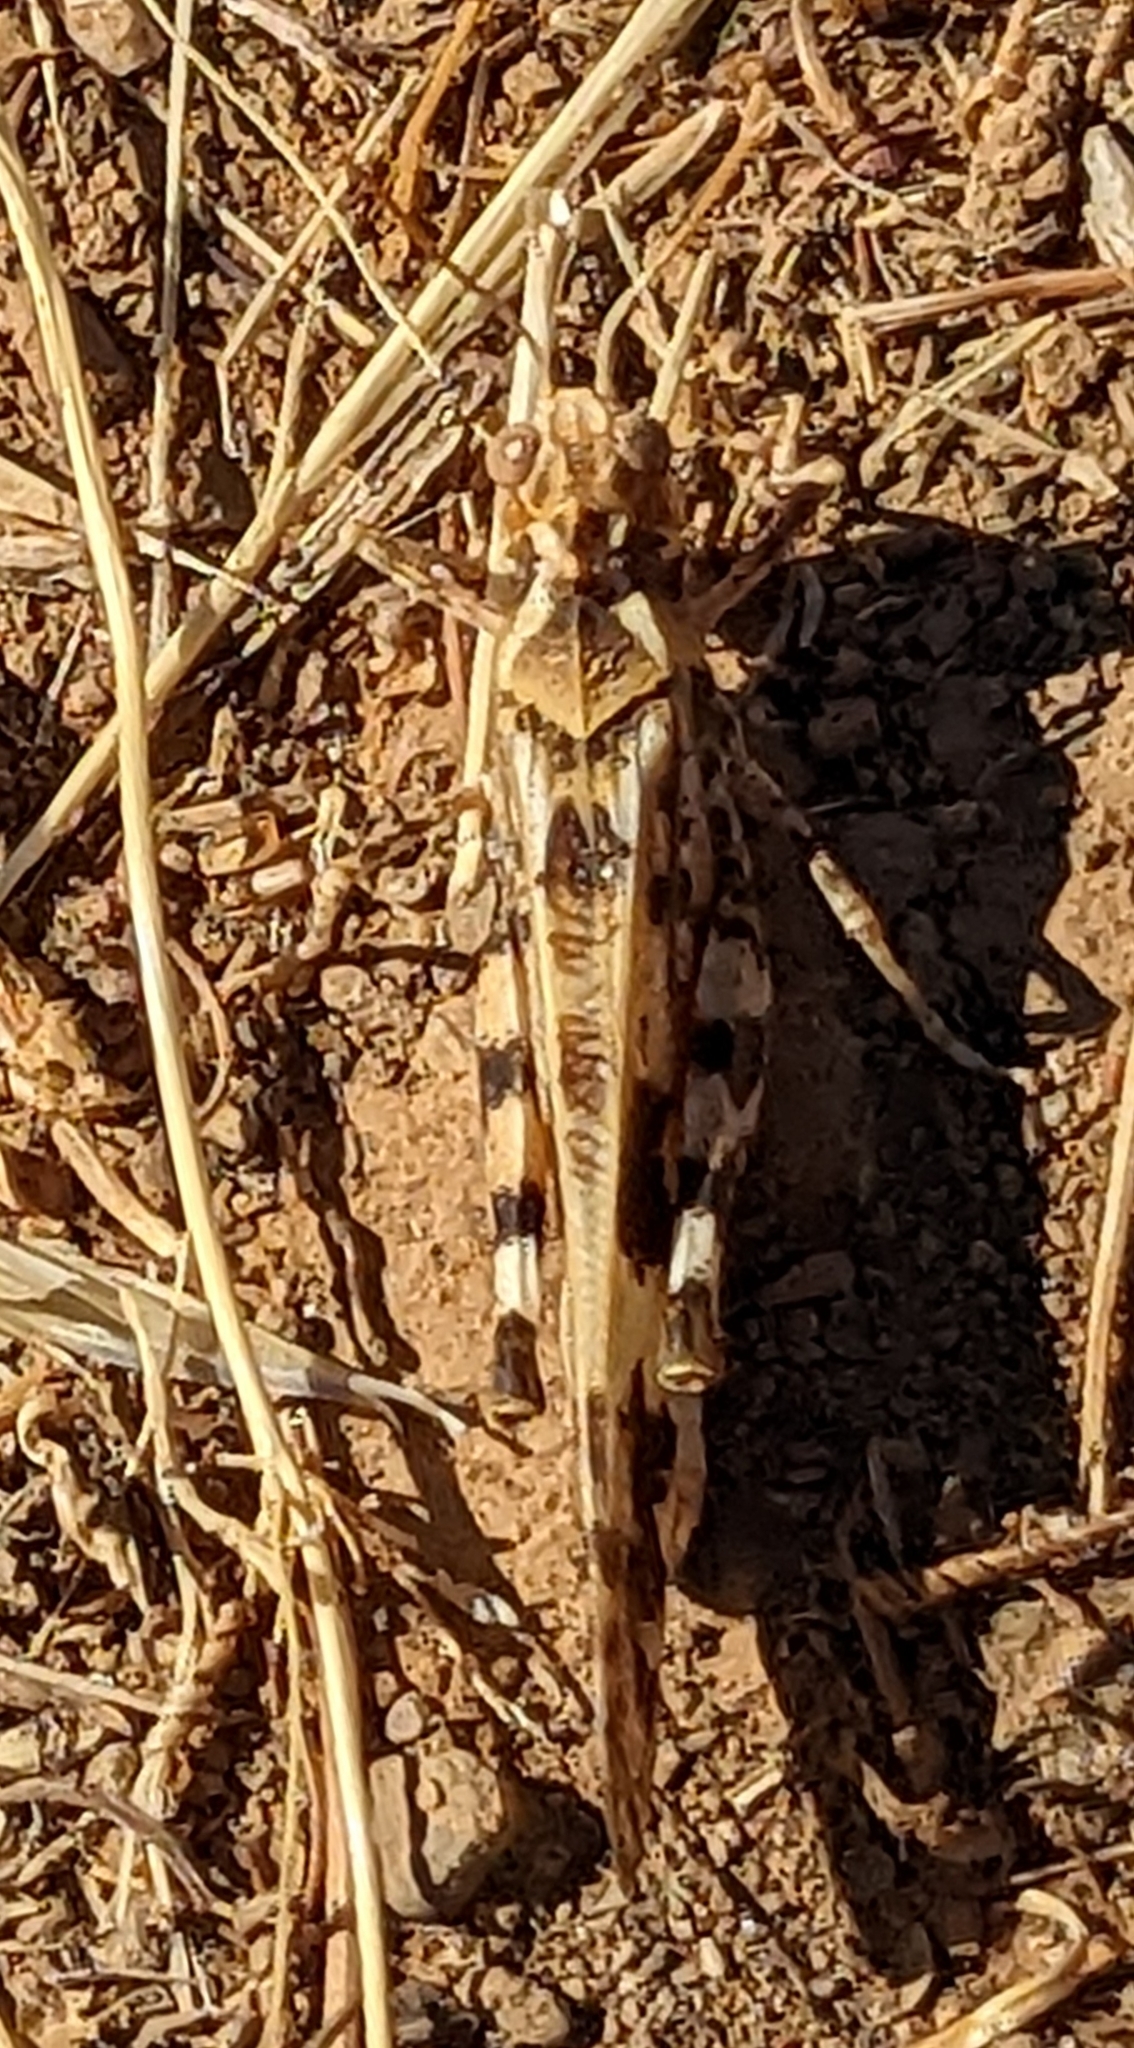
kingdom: Animalia
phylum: Arthropoda
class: Insecta
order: Orthoptera
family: Acrididae
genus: Dissosteira
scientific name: Dissosteira spurcata
